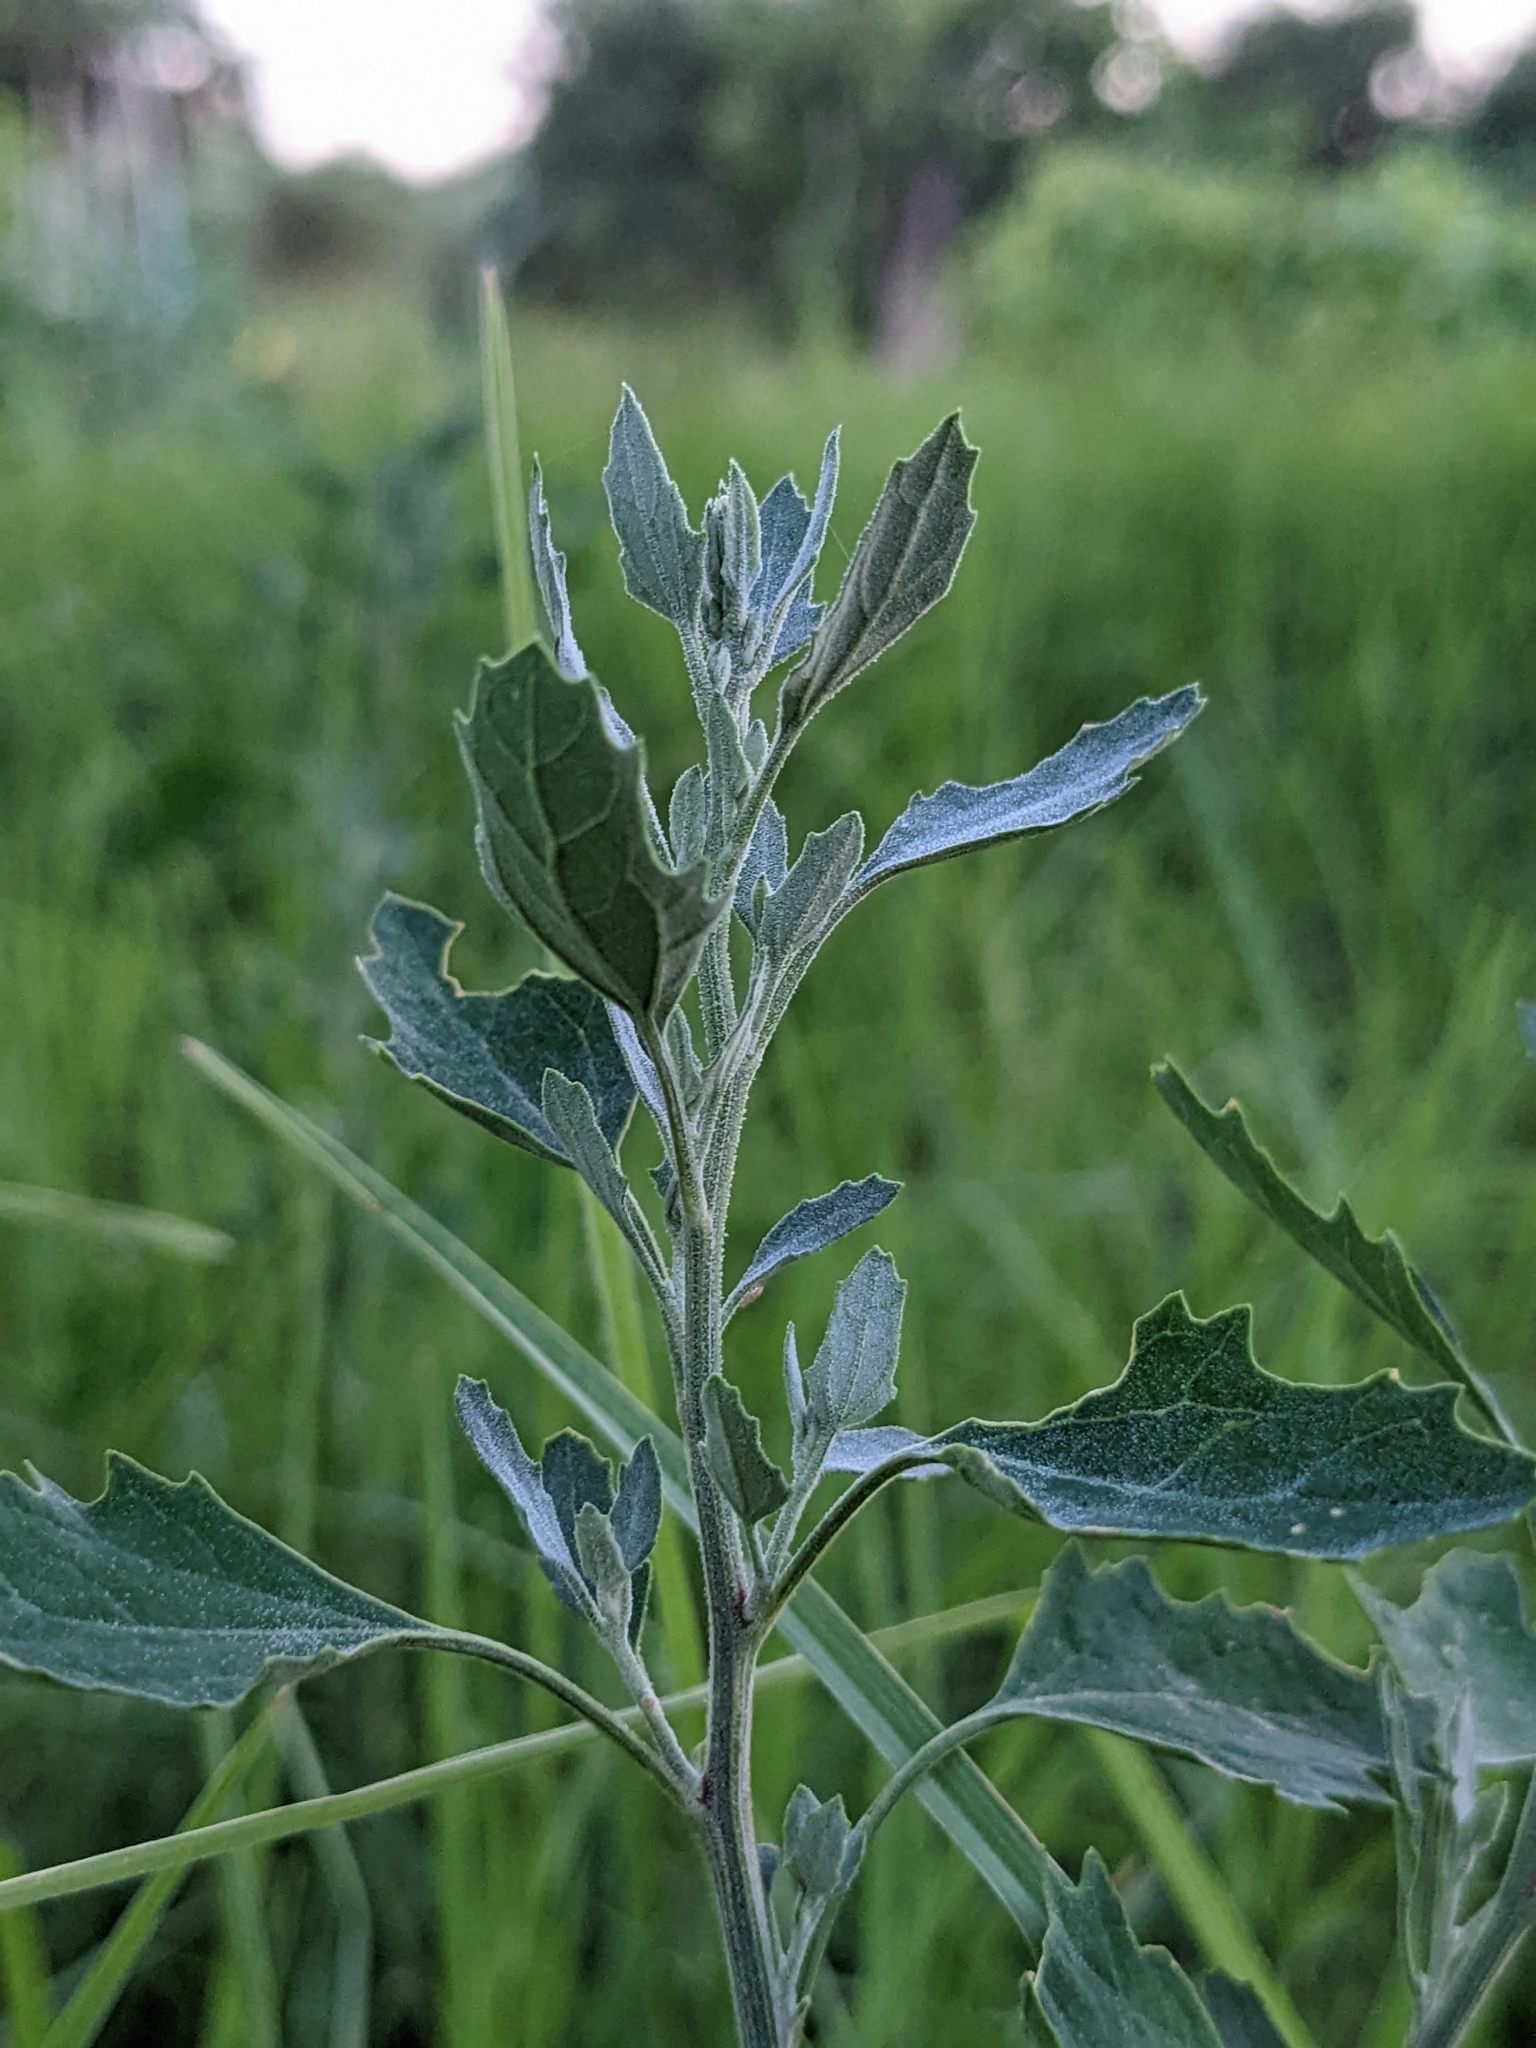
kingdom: Plantae
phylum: Tracheophyta
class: Magnoliopsida
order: Caryophyllales
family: Amaranthaceae
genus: Chenopodium
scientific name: Chenopodium album
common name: Fat-hen
